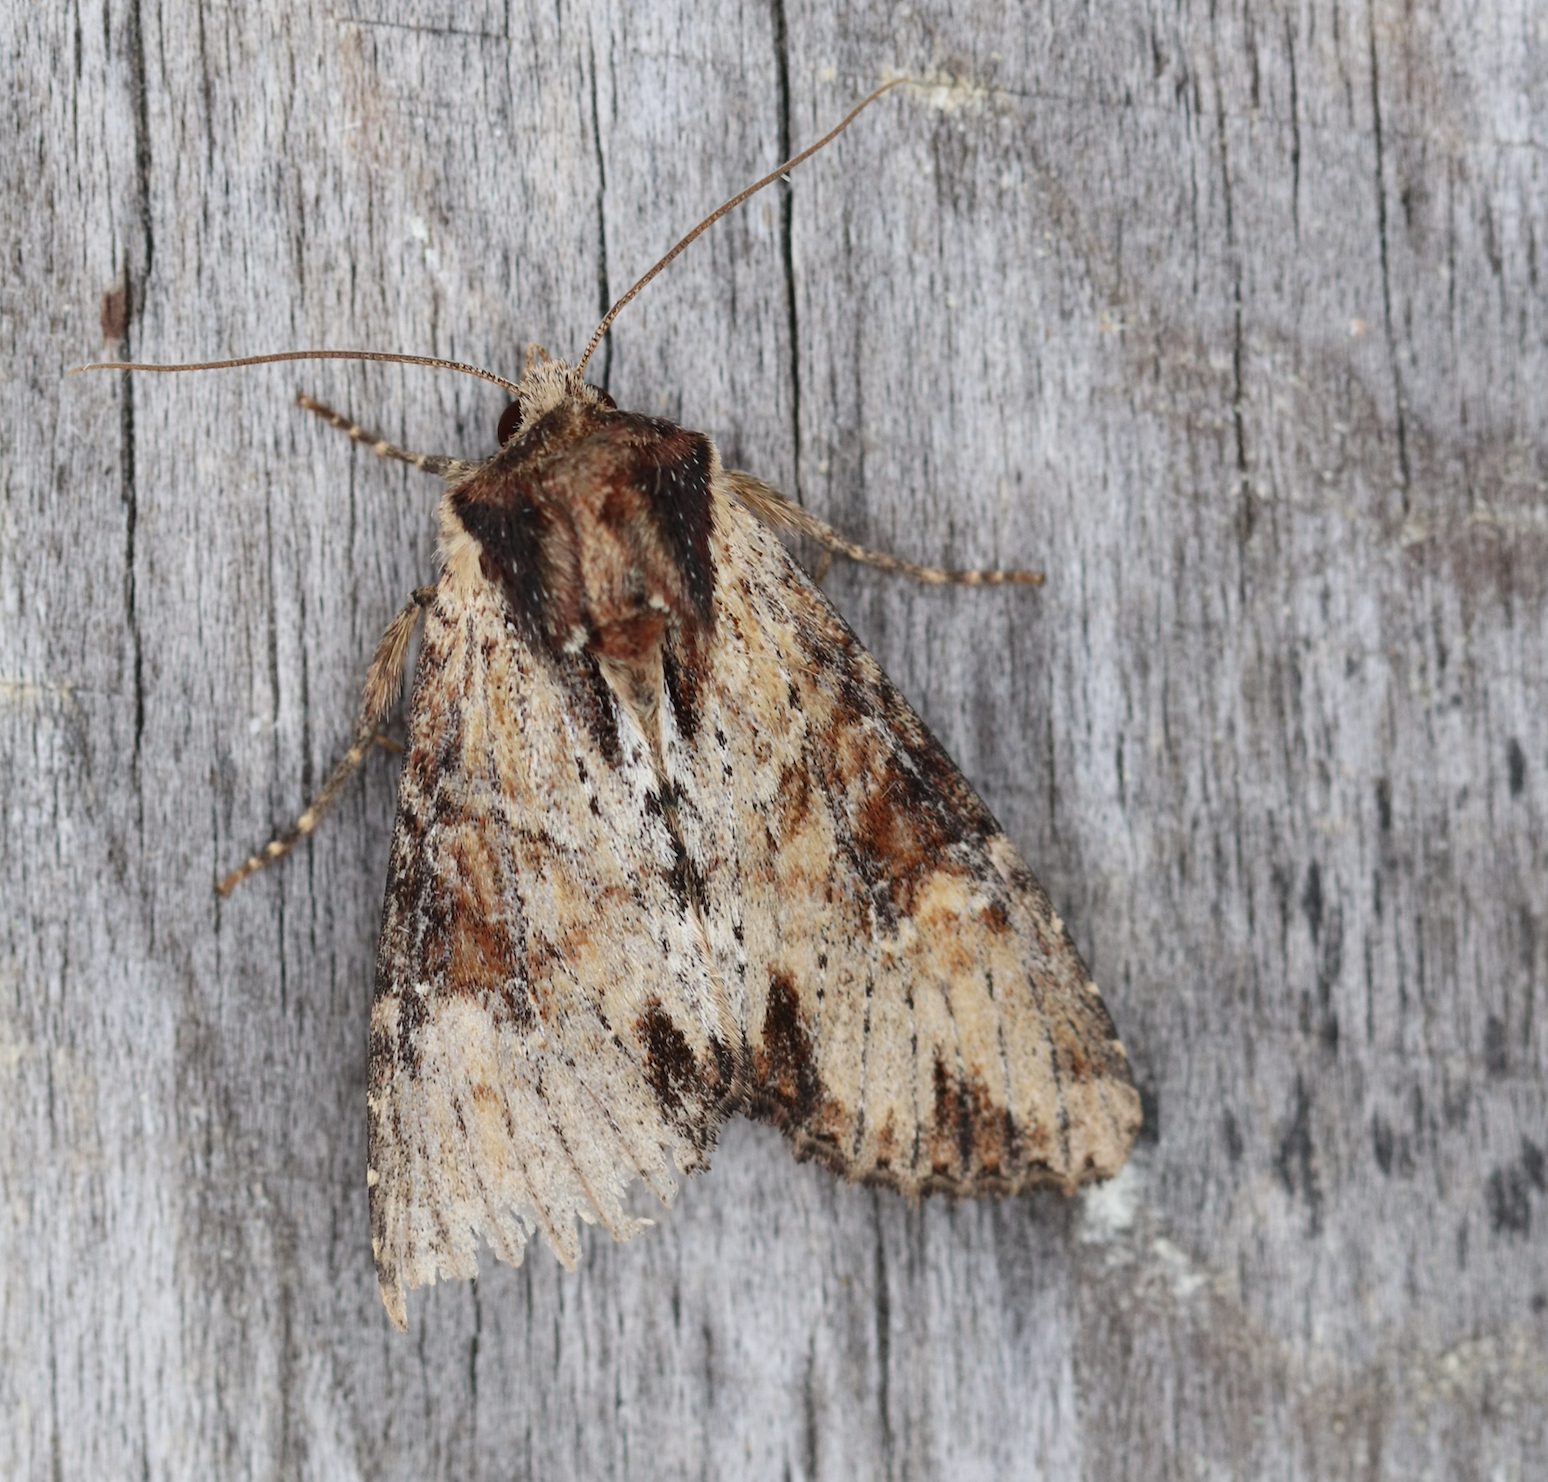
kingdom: Animalia
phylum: Arthropoda
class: Insecta
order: Lepidoptera
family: Noctuidae
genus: Apamea
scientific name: Apamea crenata
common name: Clouded-bordered brindle
